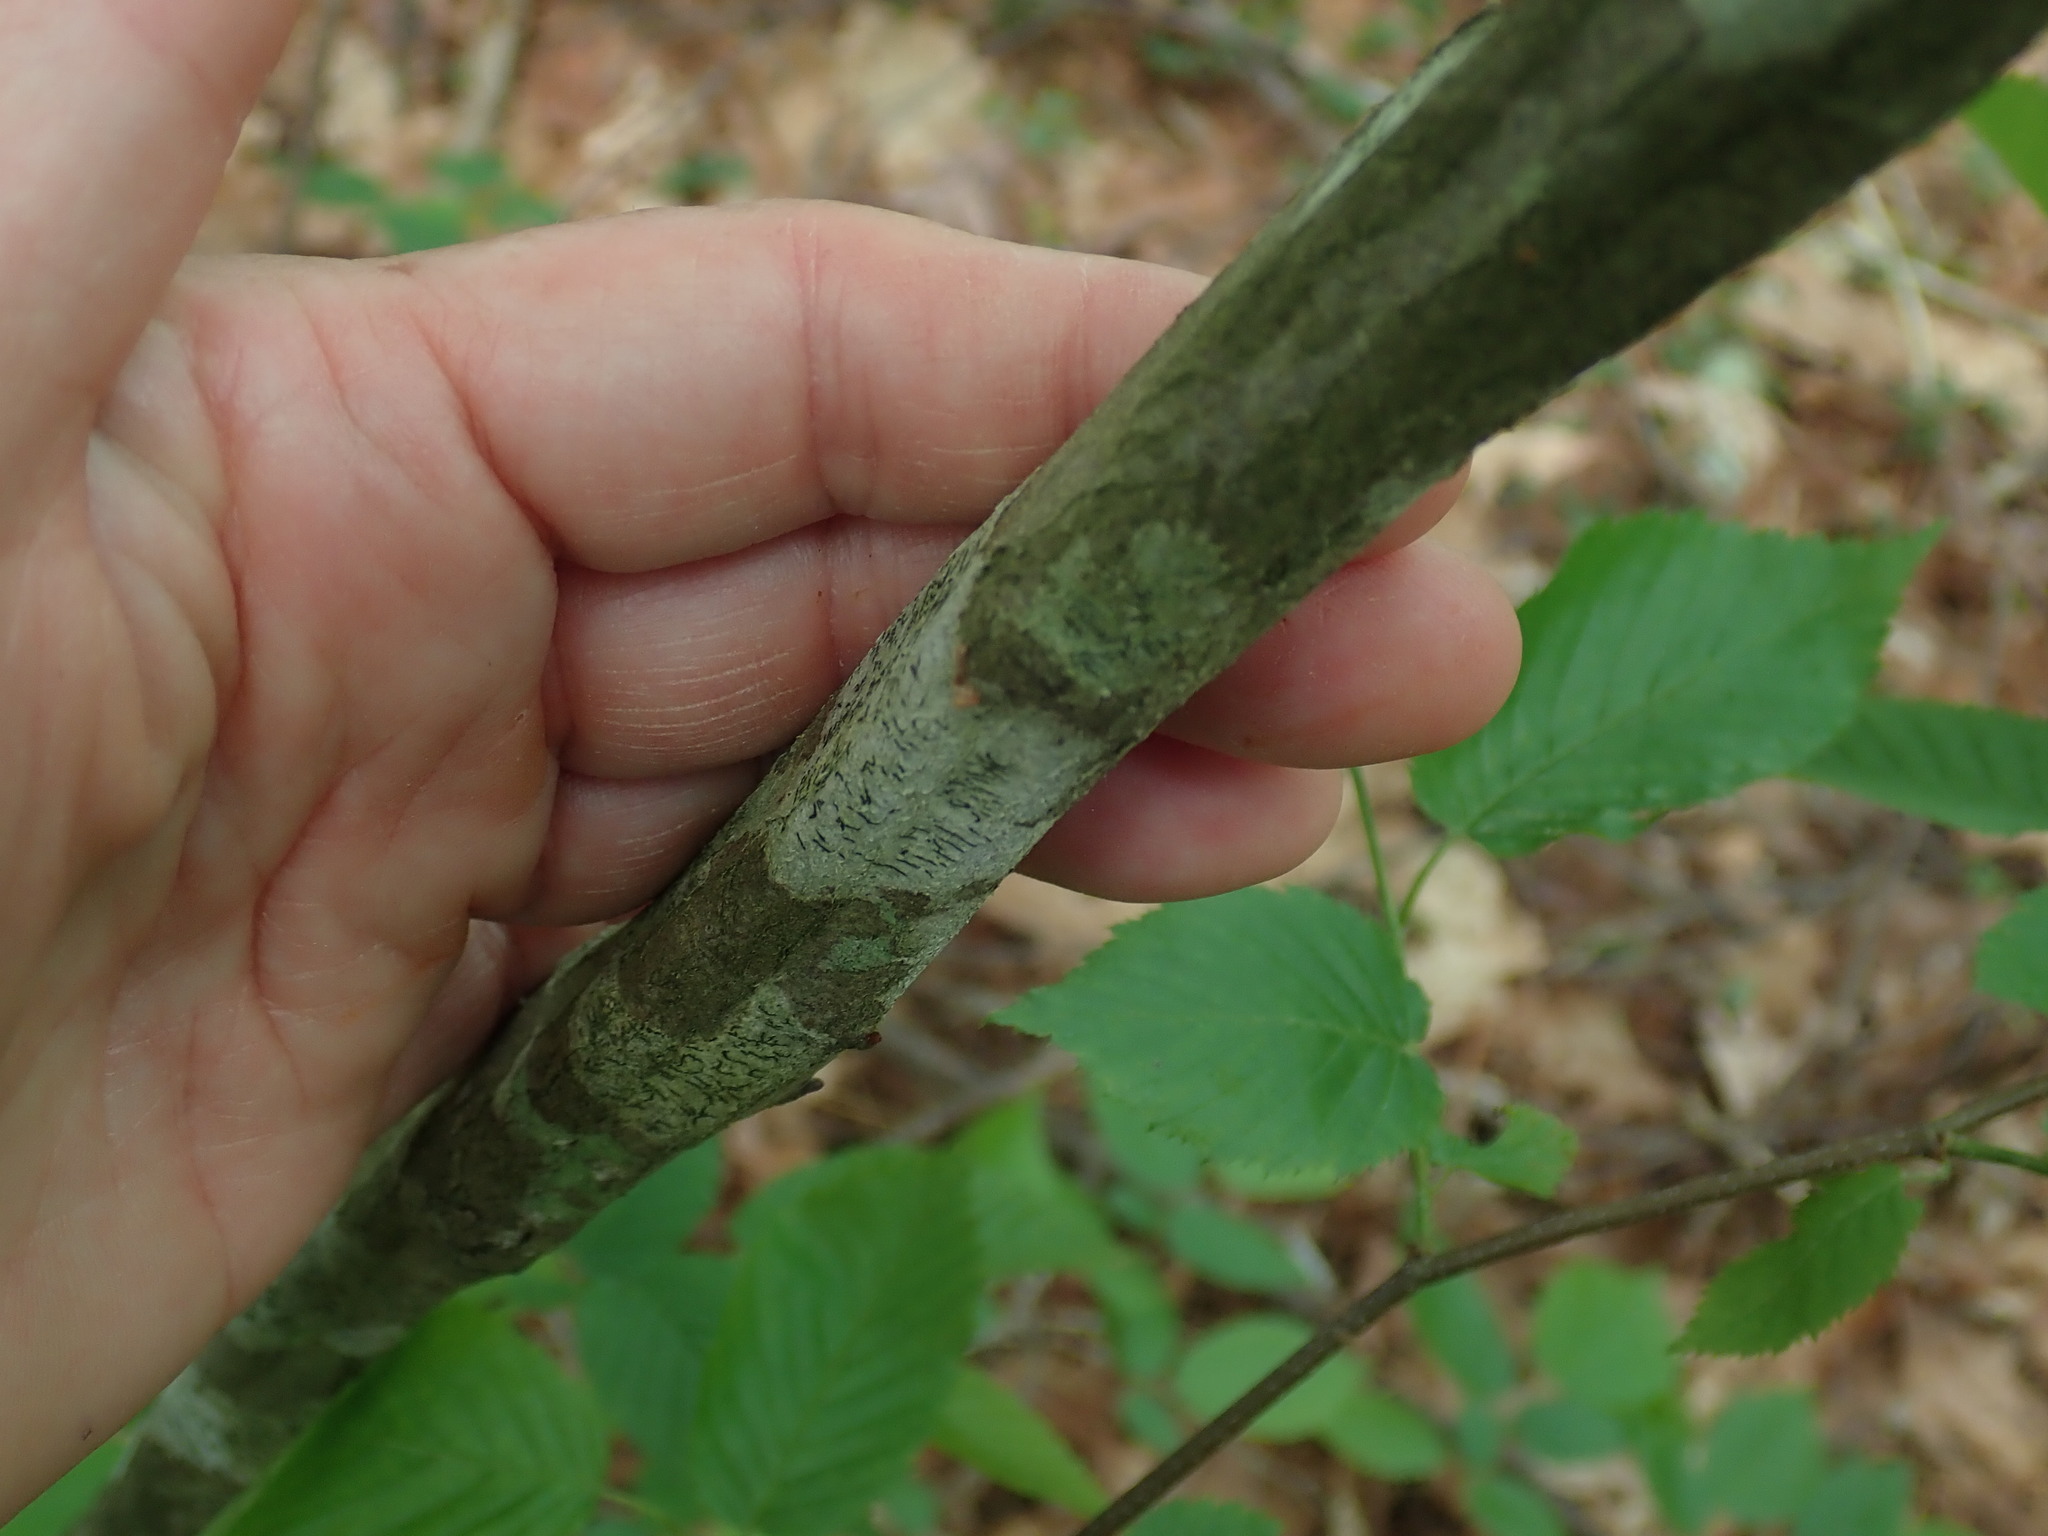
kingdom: Plantae
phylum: Tracheophyta
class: Magnoliopsida
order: Fagales
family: Betulaceae
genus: Carpinus
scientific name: Carpinus caroliniana
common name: American hornbeam
